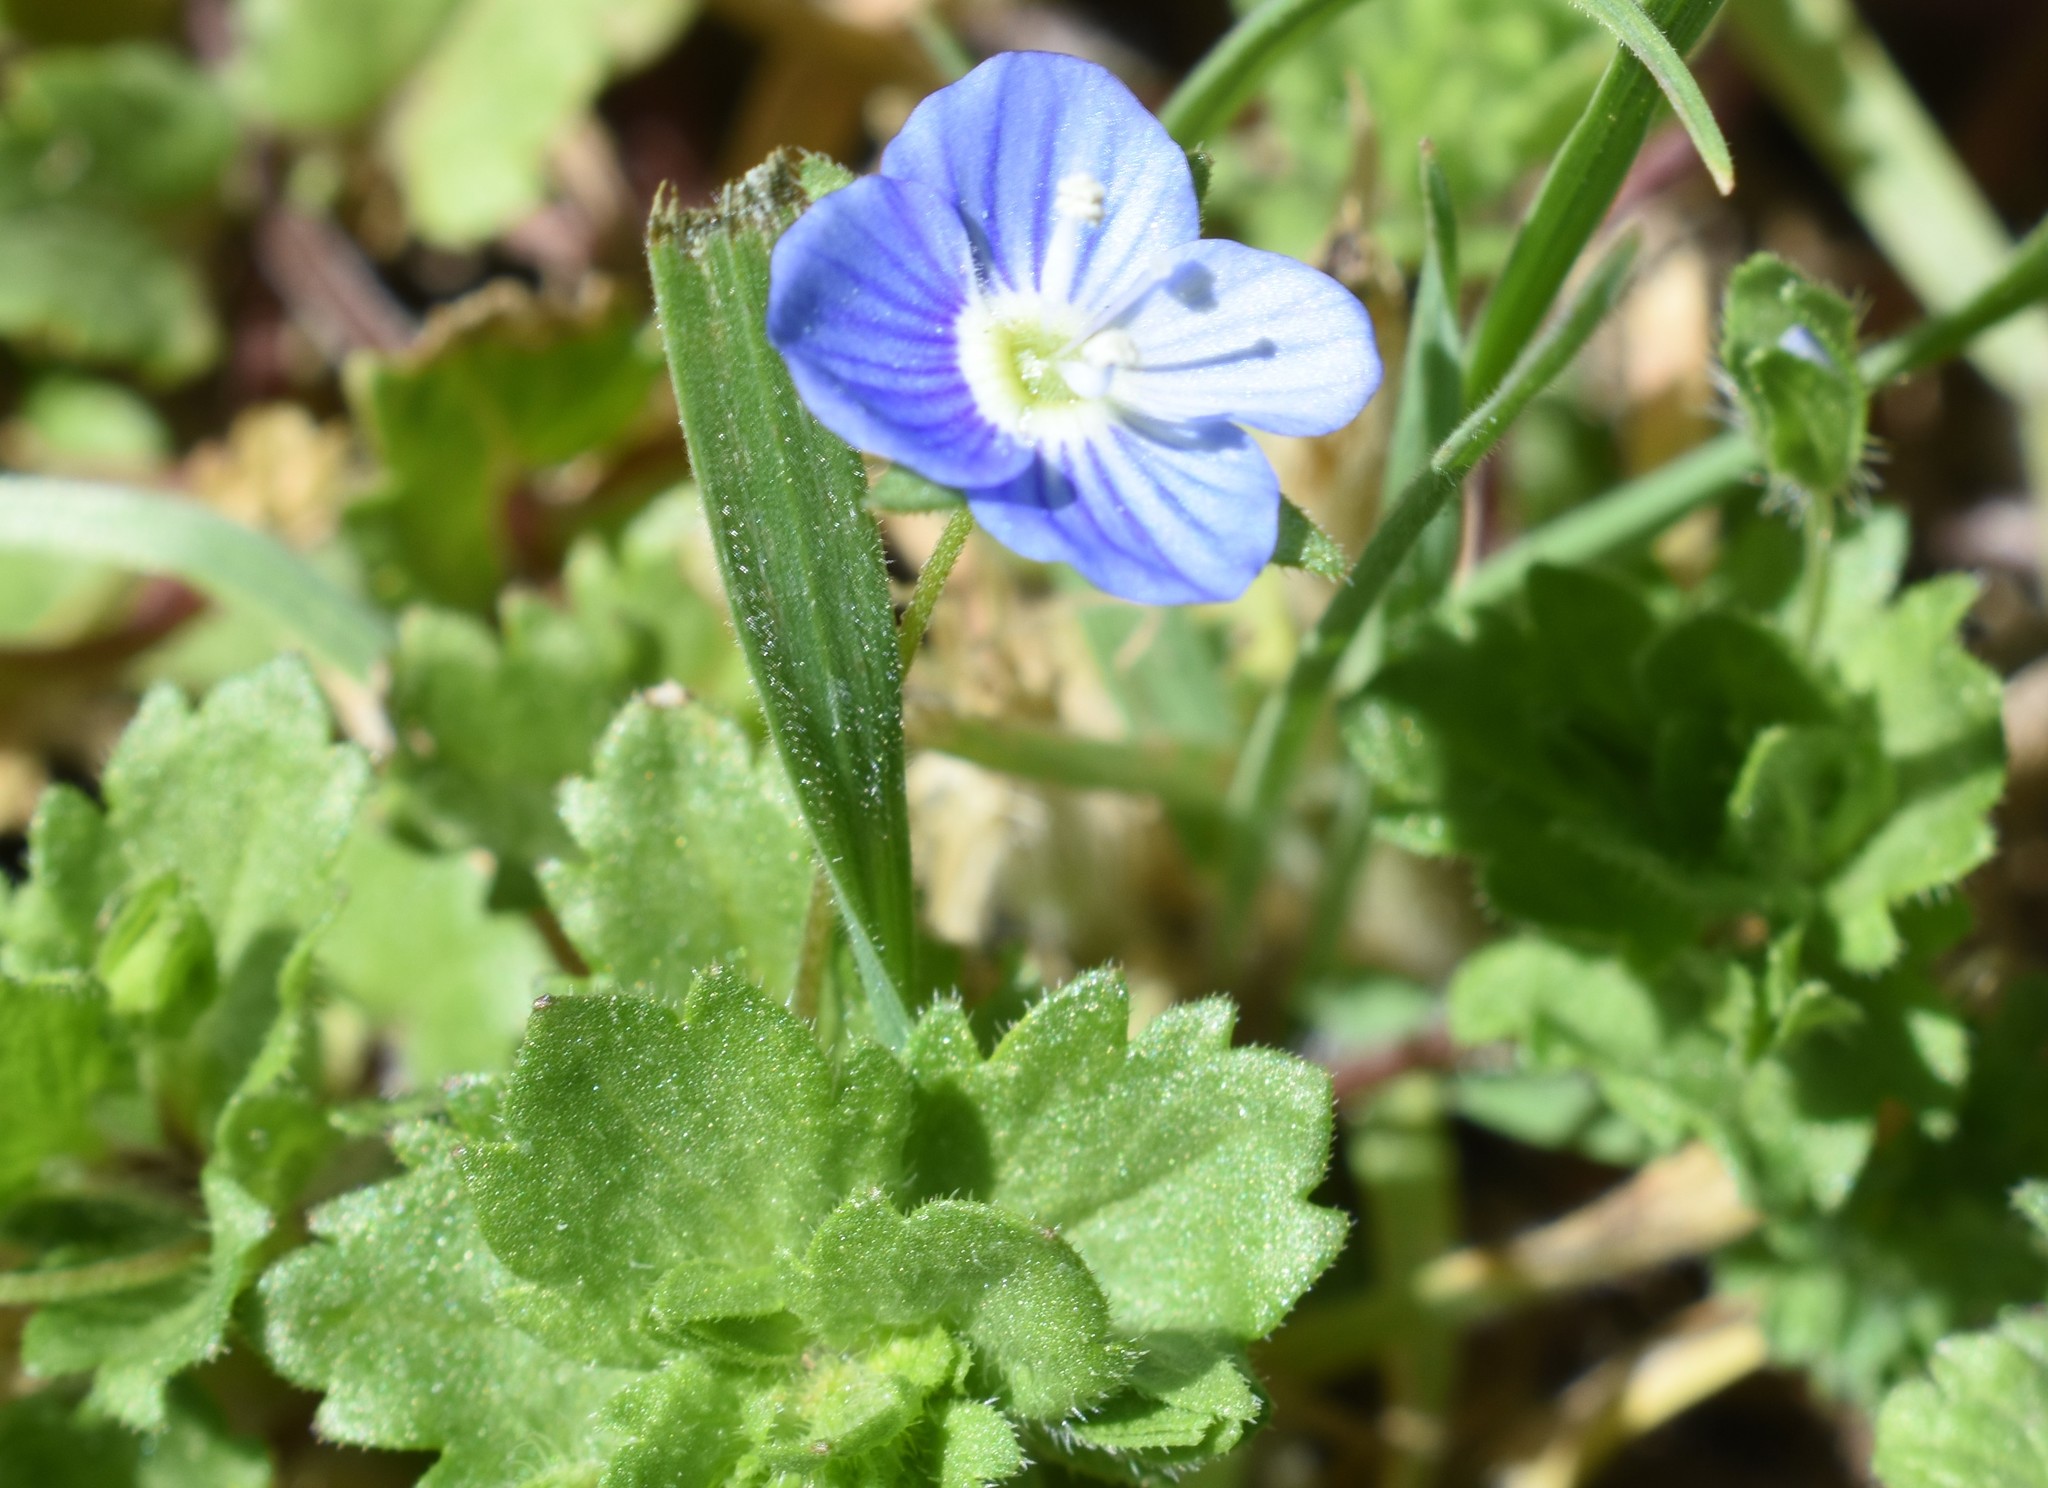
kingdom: Plantae
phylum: Tracheophyta
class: Magnoliopsida
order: Lamiales
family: Plantaginaceae
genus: Veronica
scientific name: Veronica persica
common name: Common field-speedwell
